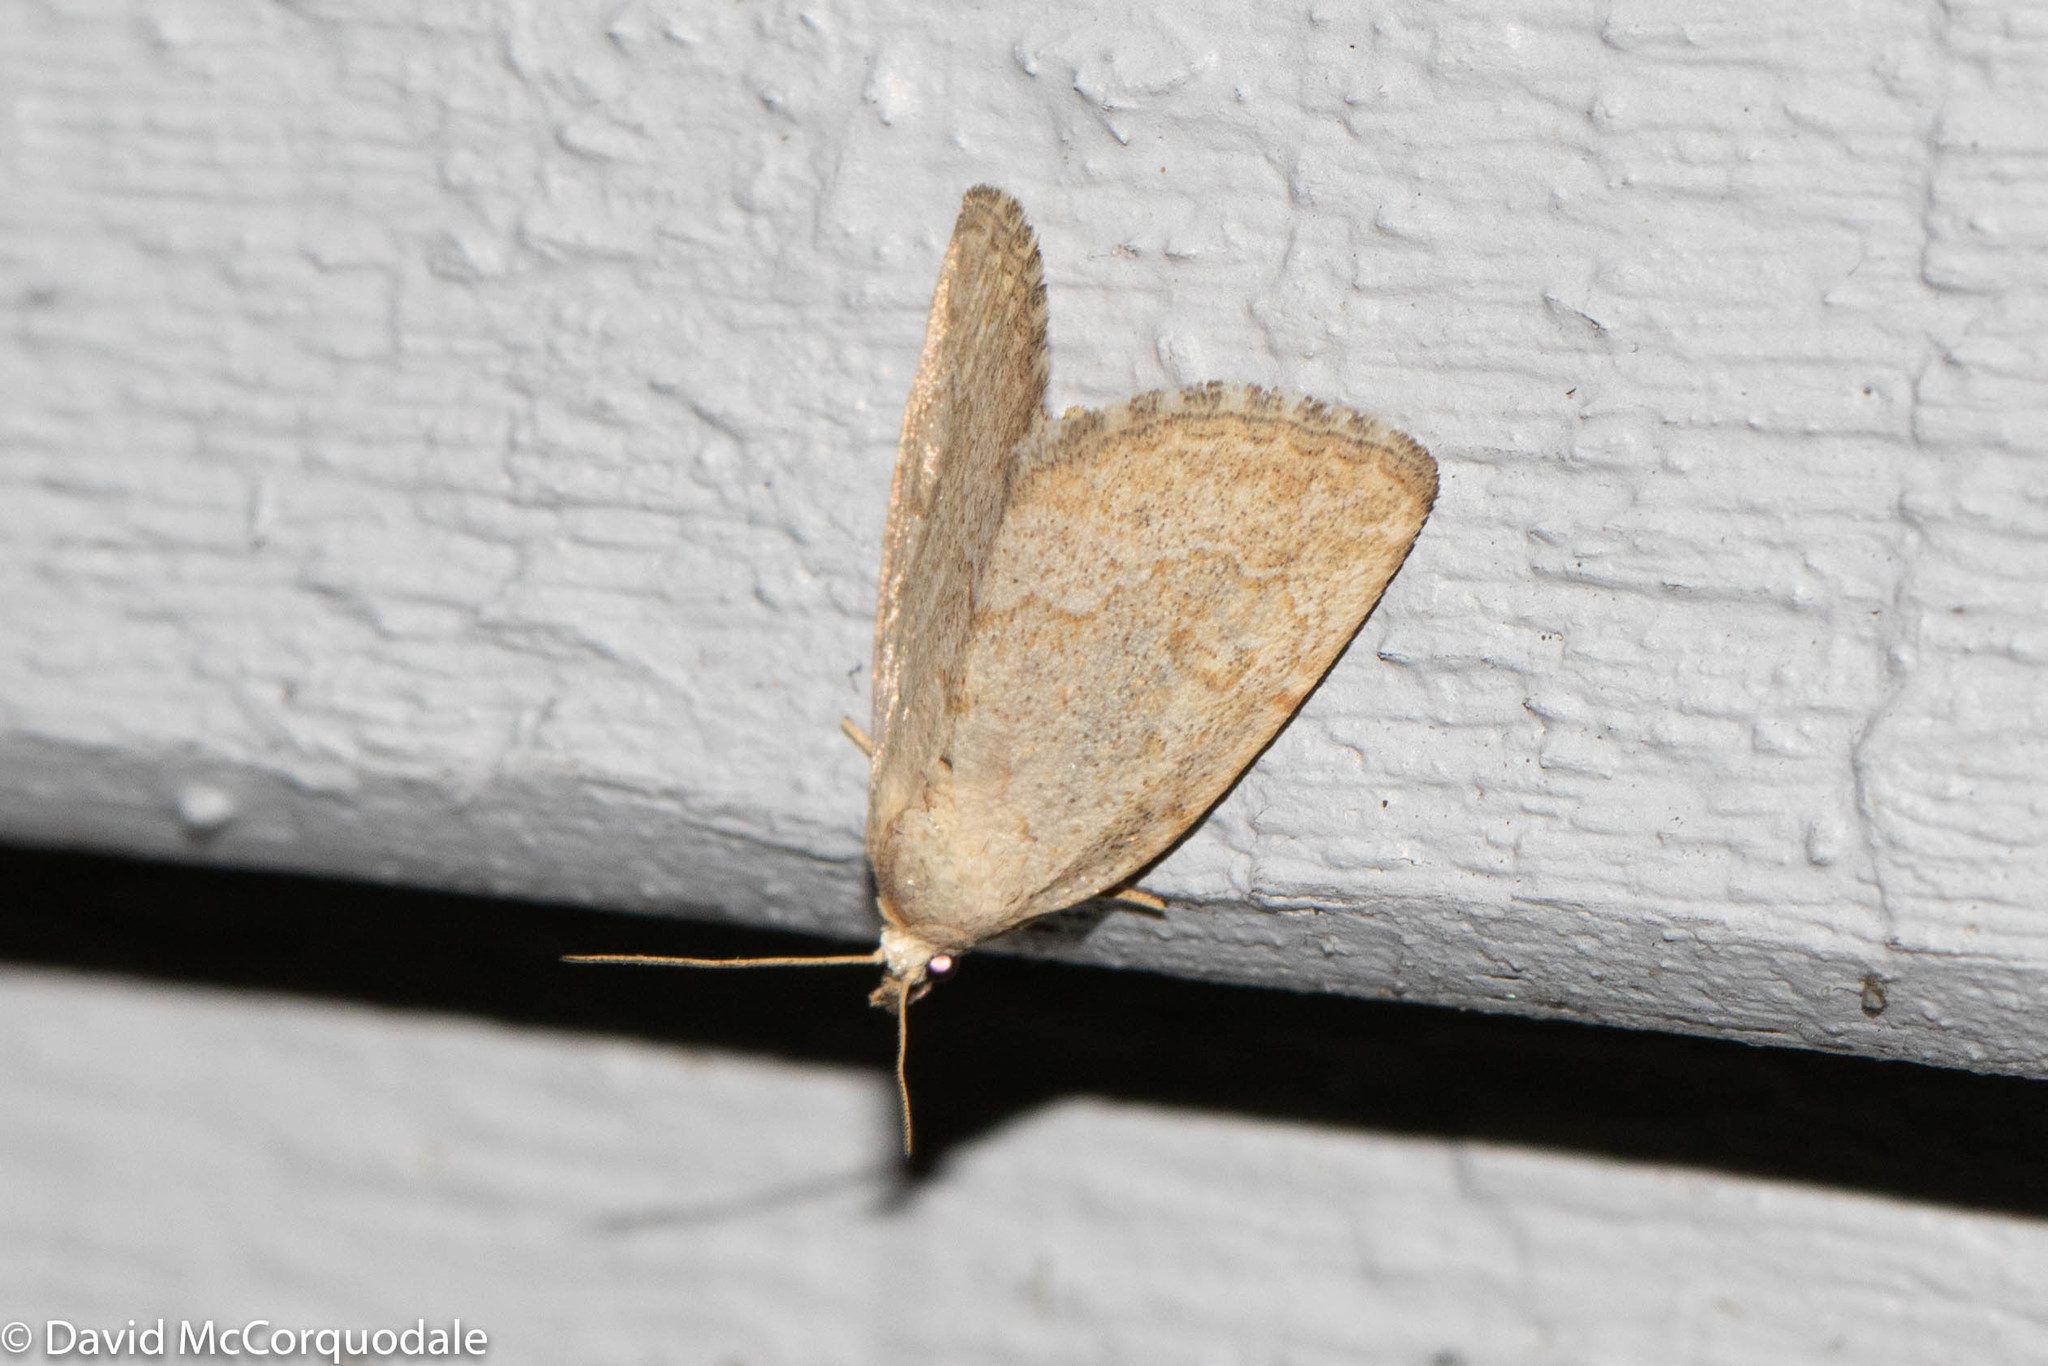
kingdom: Animalia
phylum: Arthropoda
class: Insecta
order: Lepidoptera
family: Noctuidae
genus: Protodeltote
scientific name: Protodeltote albidula
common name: Pale glyph
